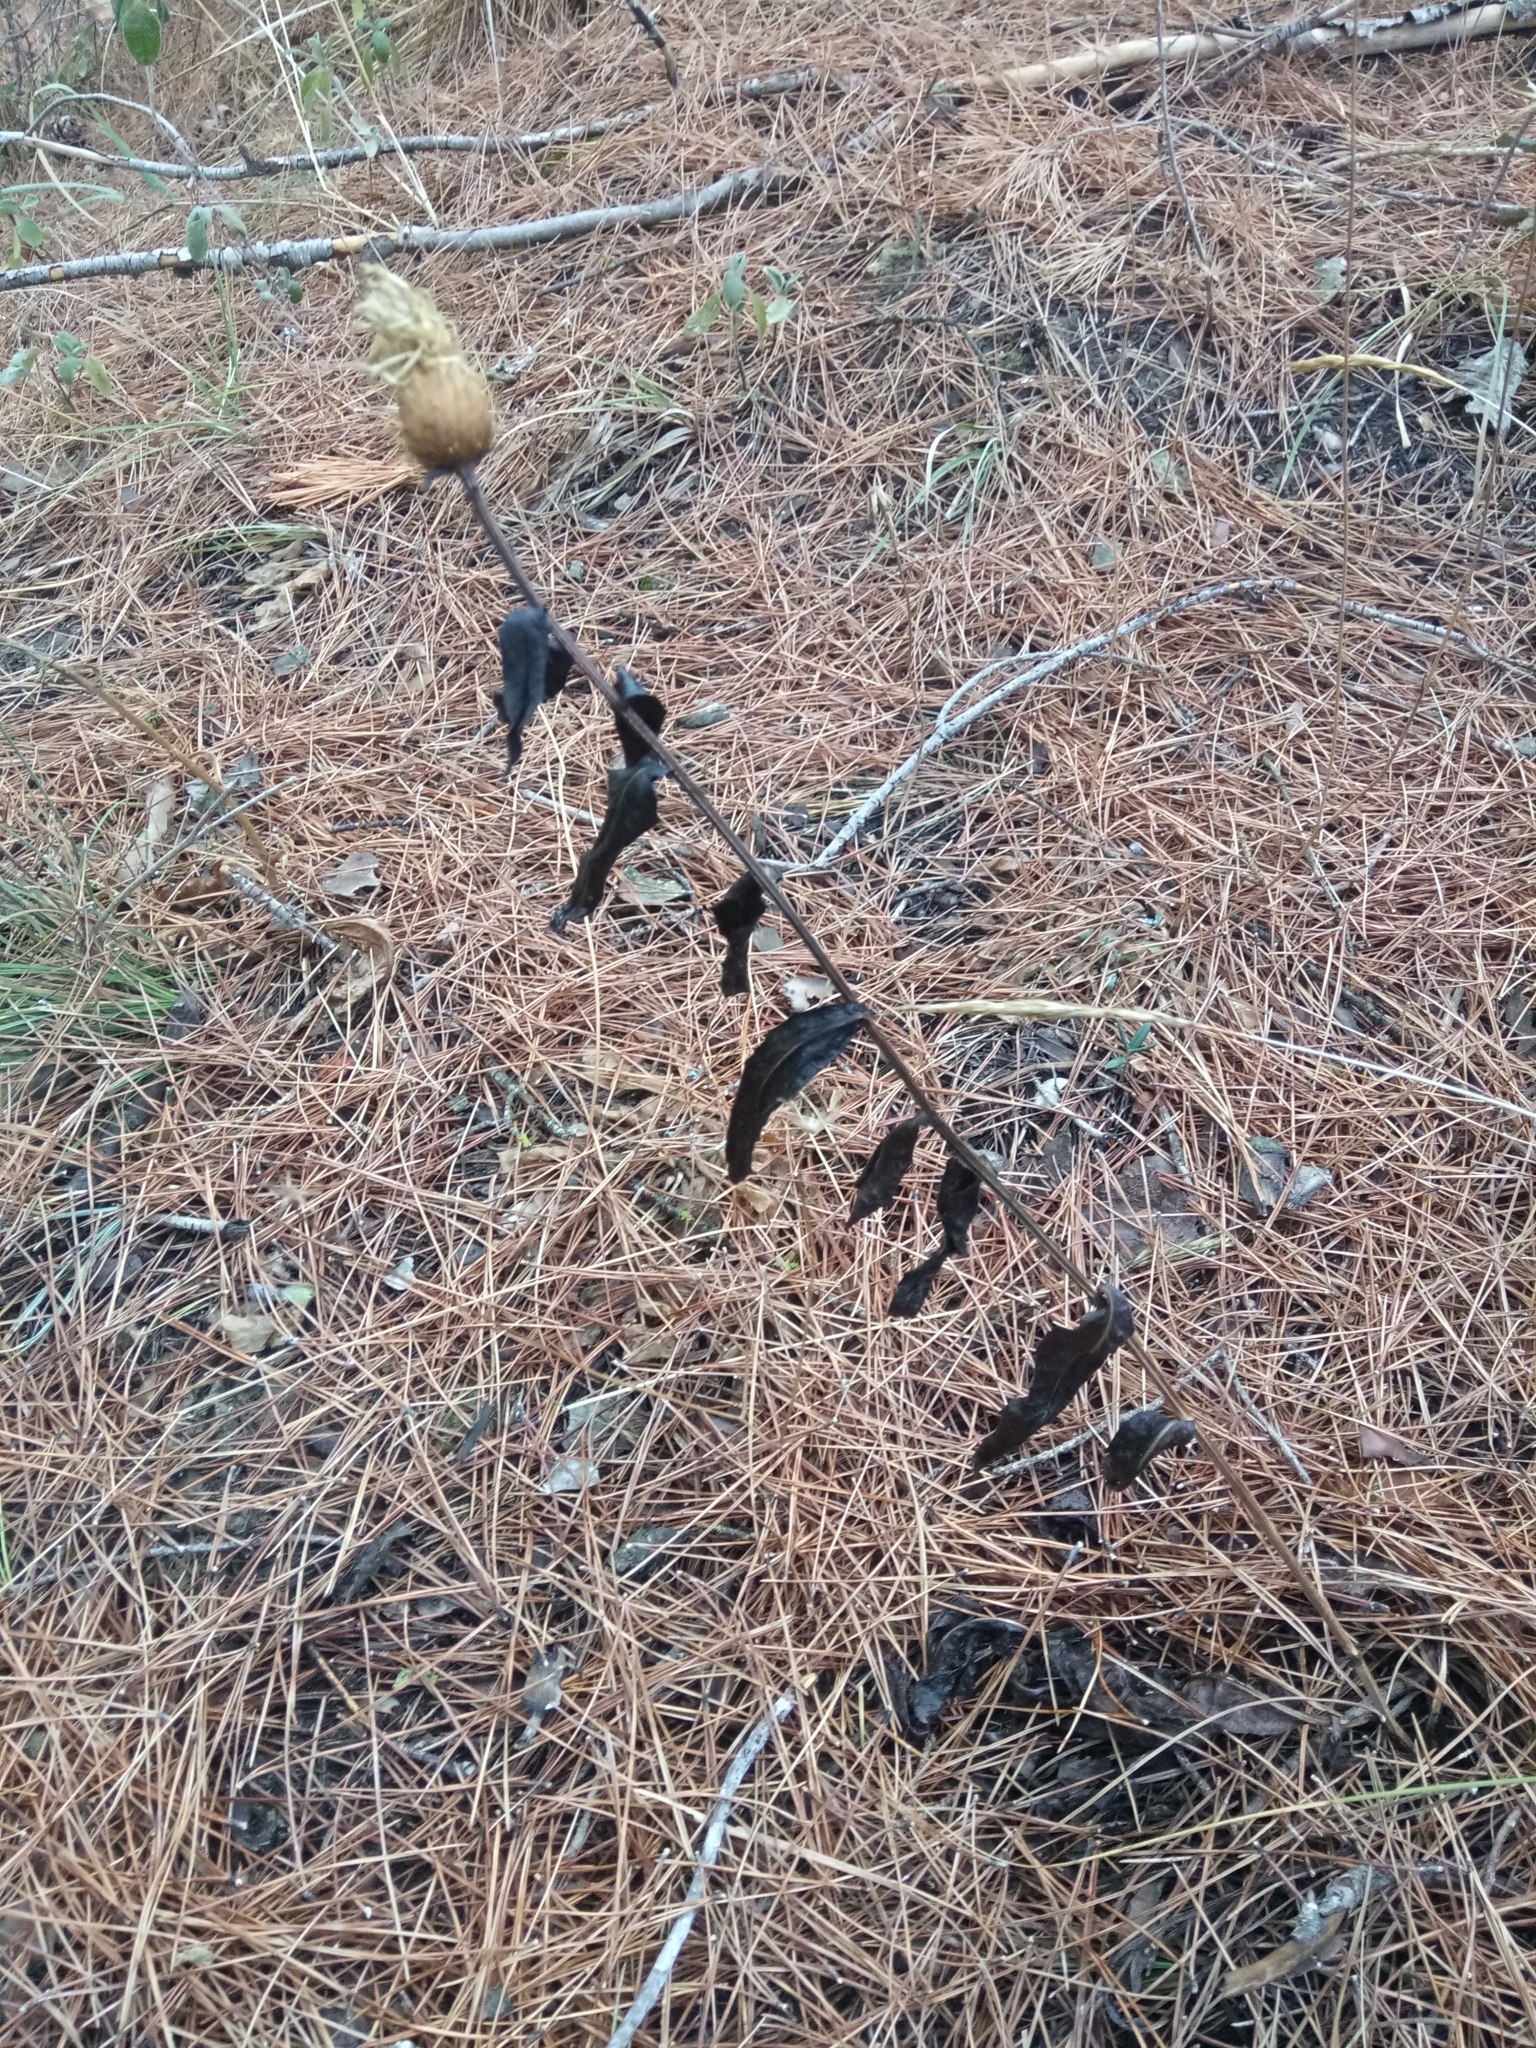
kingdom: Plantae
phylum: Tracheophyta
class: Magnoliopsida
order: Asterales
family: Asteraceae
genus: Klasea
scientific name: Klasea flavescens
